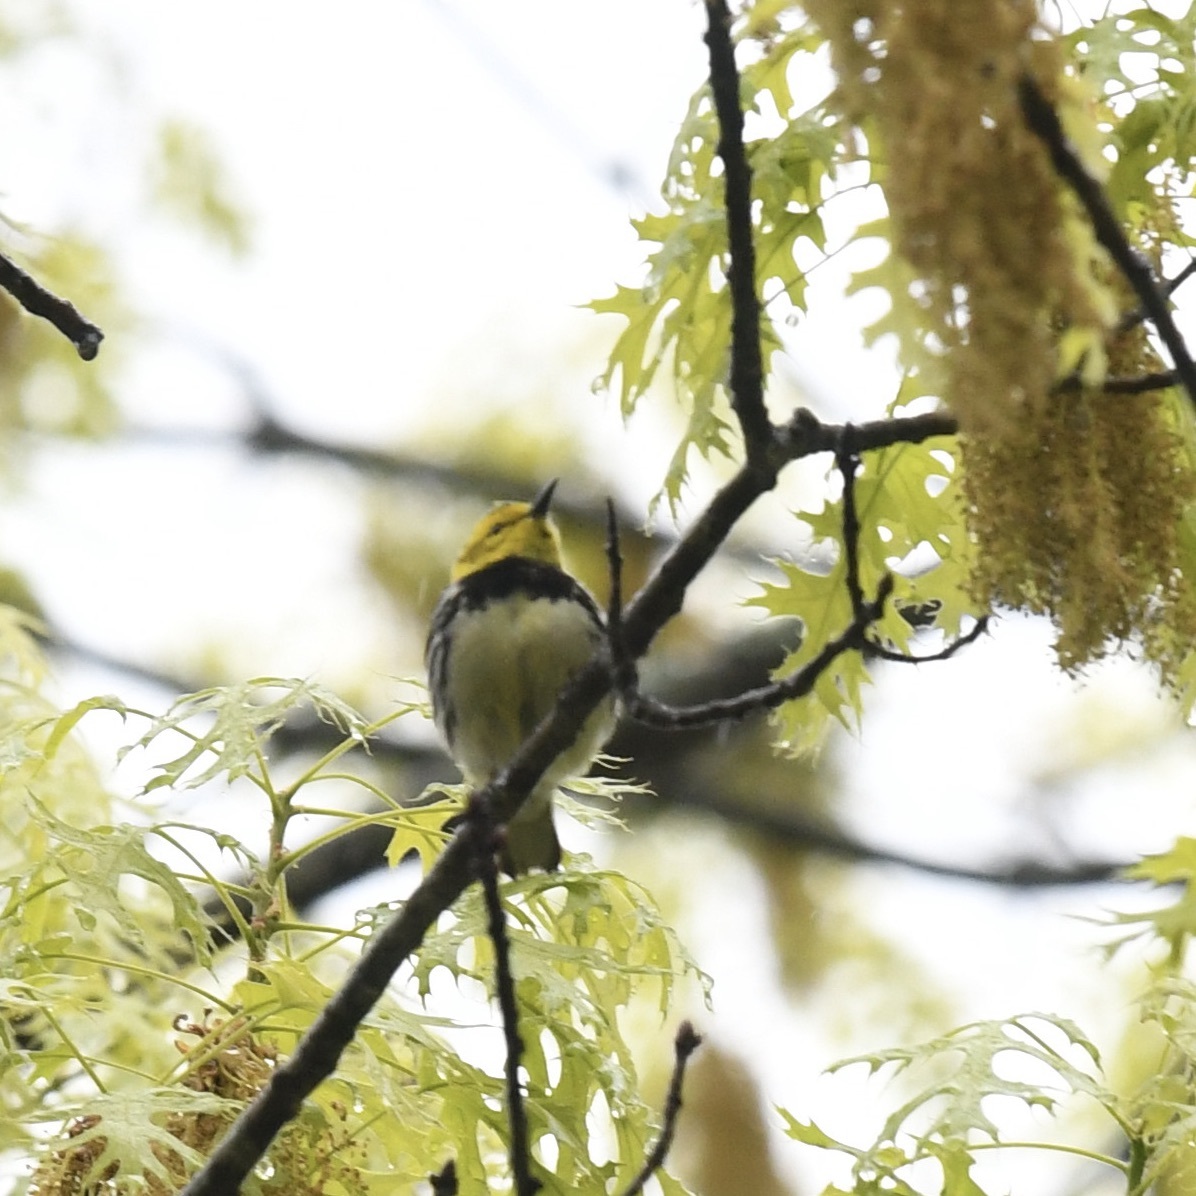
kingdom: Animalia
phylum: Chordata
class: Aves
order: Passeriformes
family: Parulidae
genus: Setophaga
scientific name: Setophaga virens
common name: Black-throated green warbler
